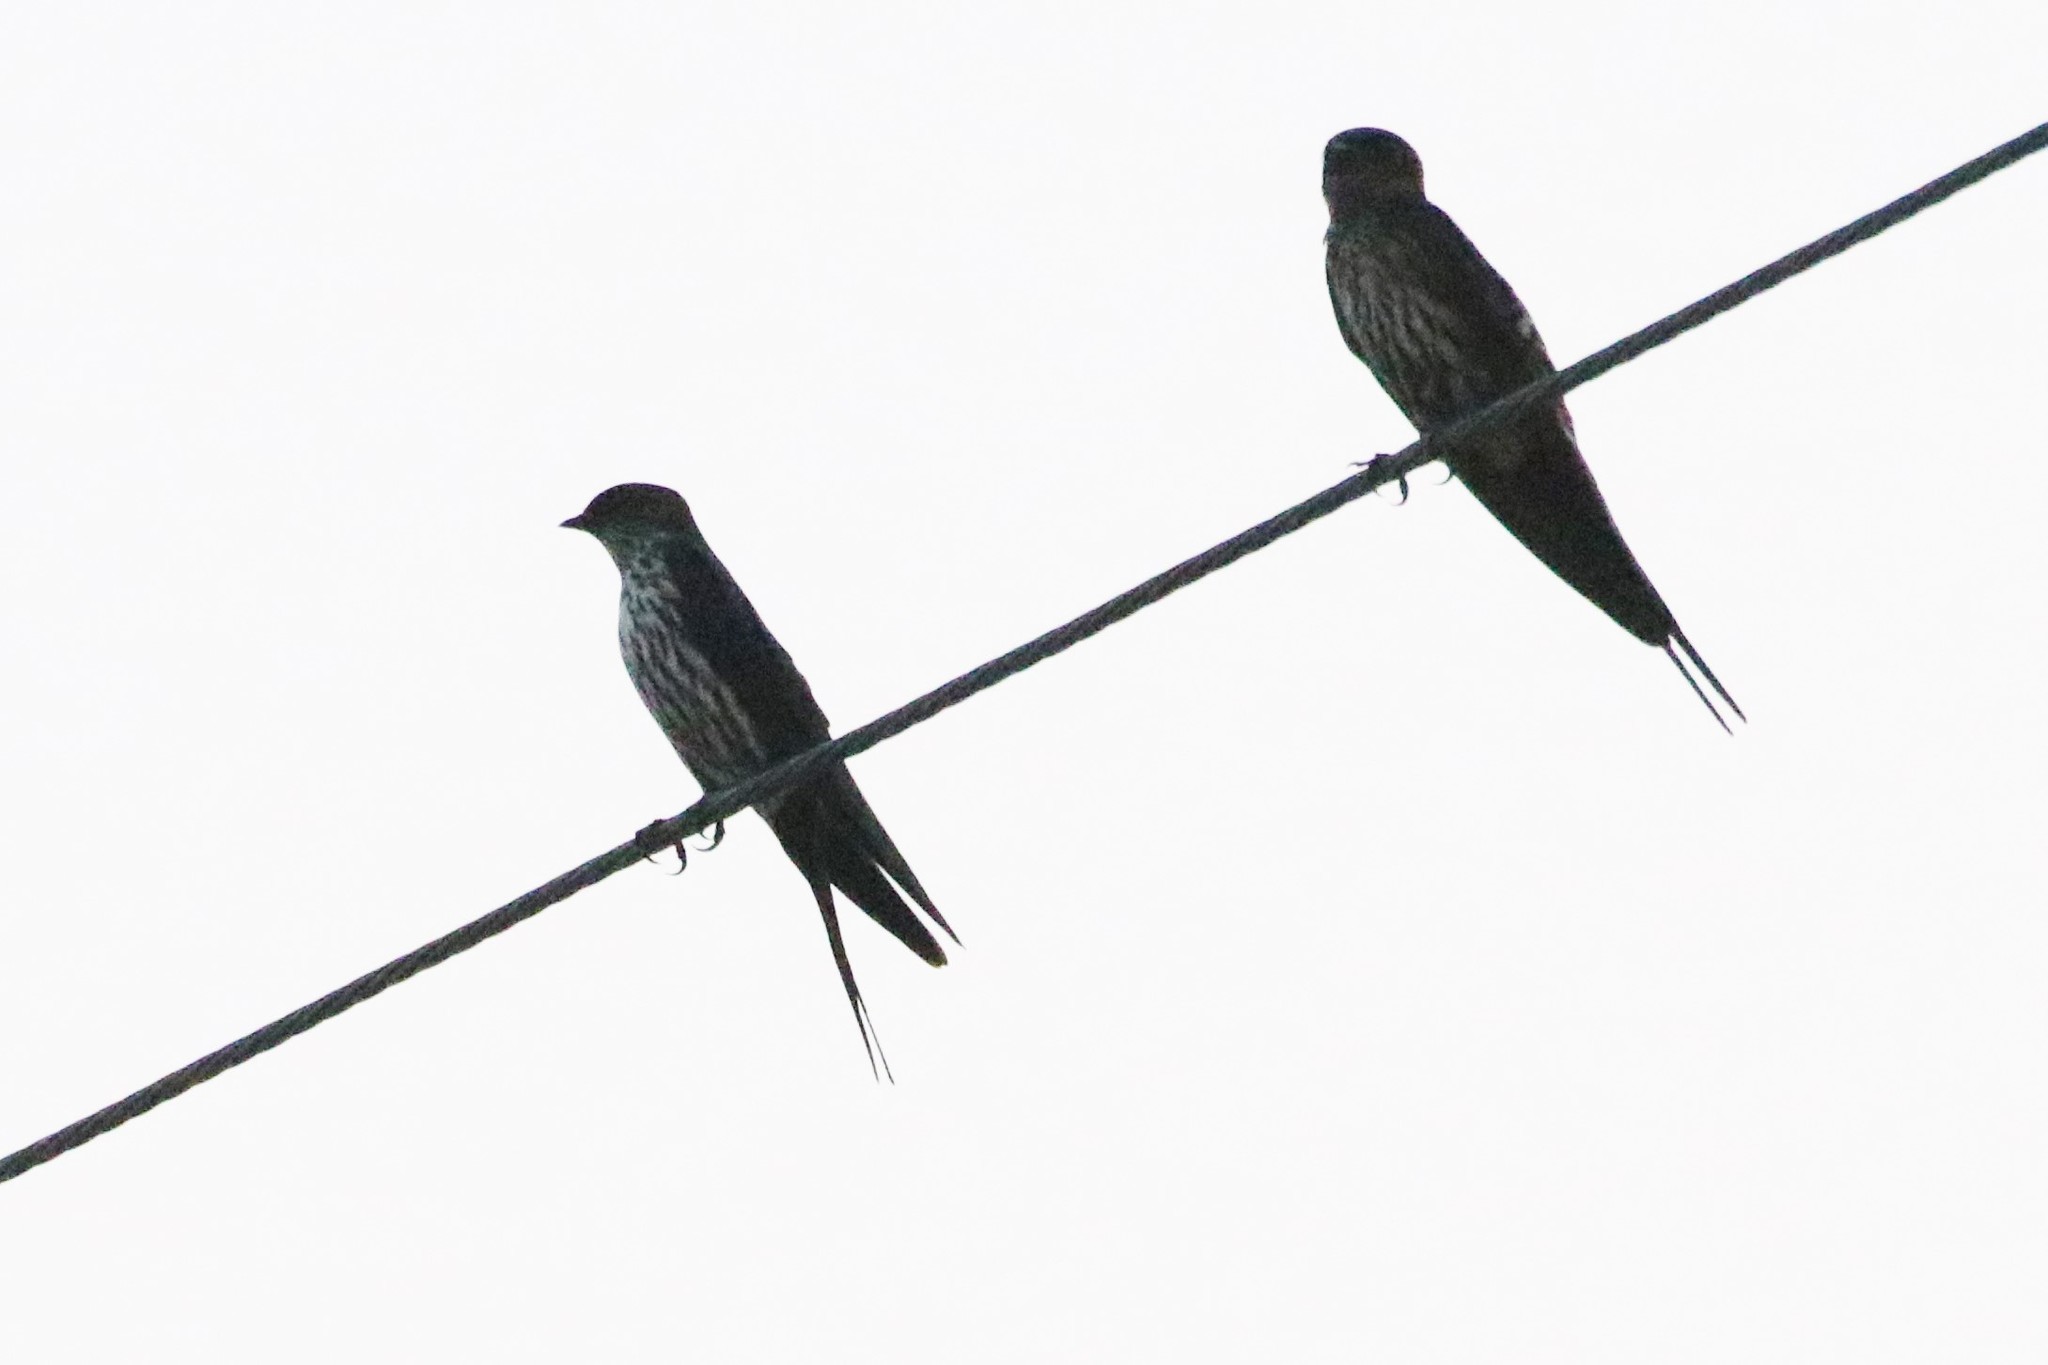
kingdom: Animalia
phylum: Chordata
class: Aves
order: Passeriformes
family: Hirundinidae
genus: Cecropis
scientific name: Cecropis striolata
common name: Striated swallow
